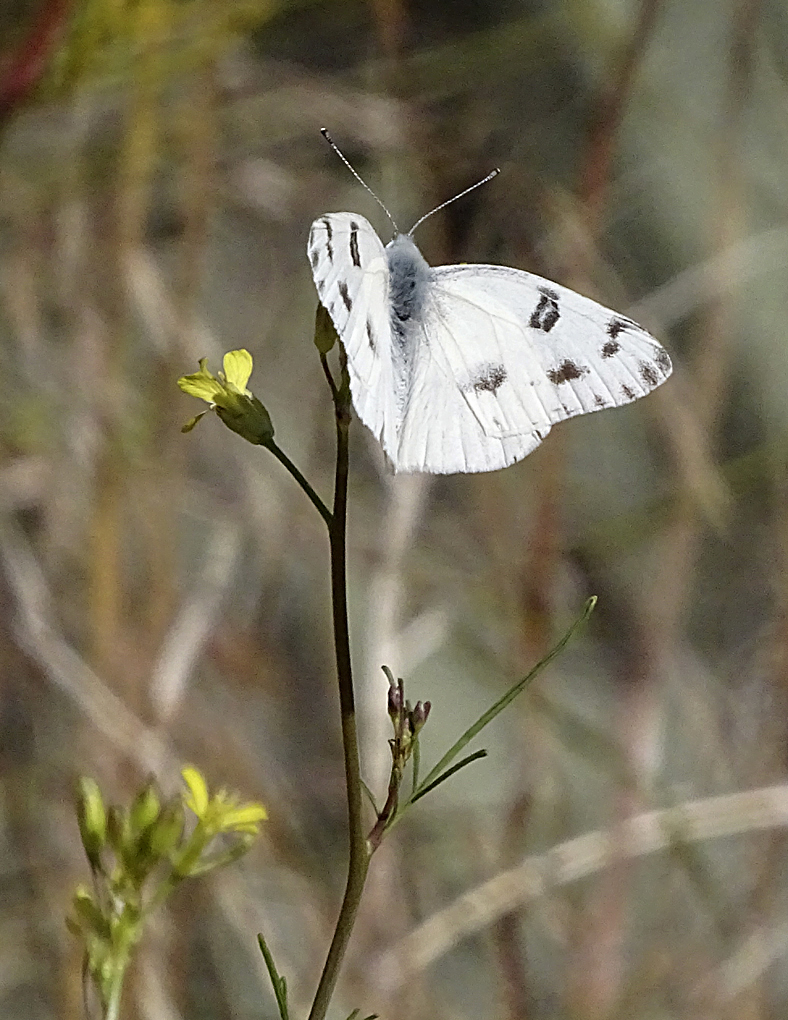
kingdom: Animalia
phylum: Arthropoda
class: Insecta
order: Lepidoptera
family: Pieridae
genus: Pontia
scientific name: Pontia protodice
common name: Checkered white
